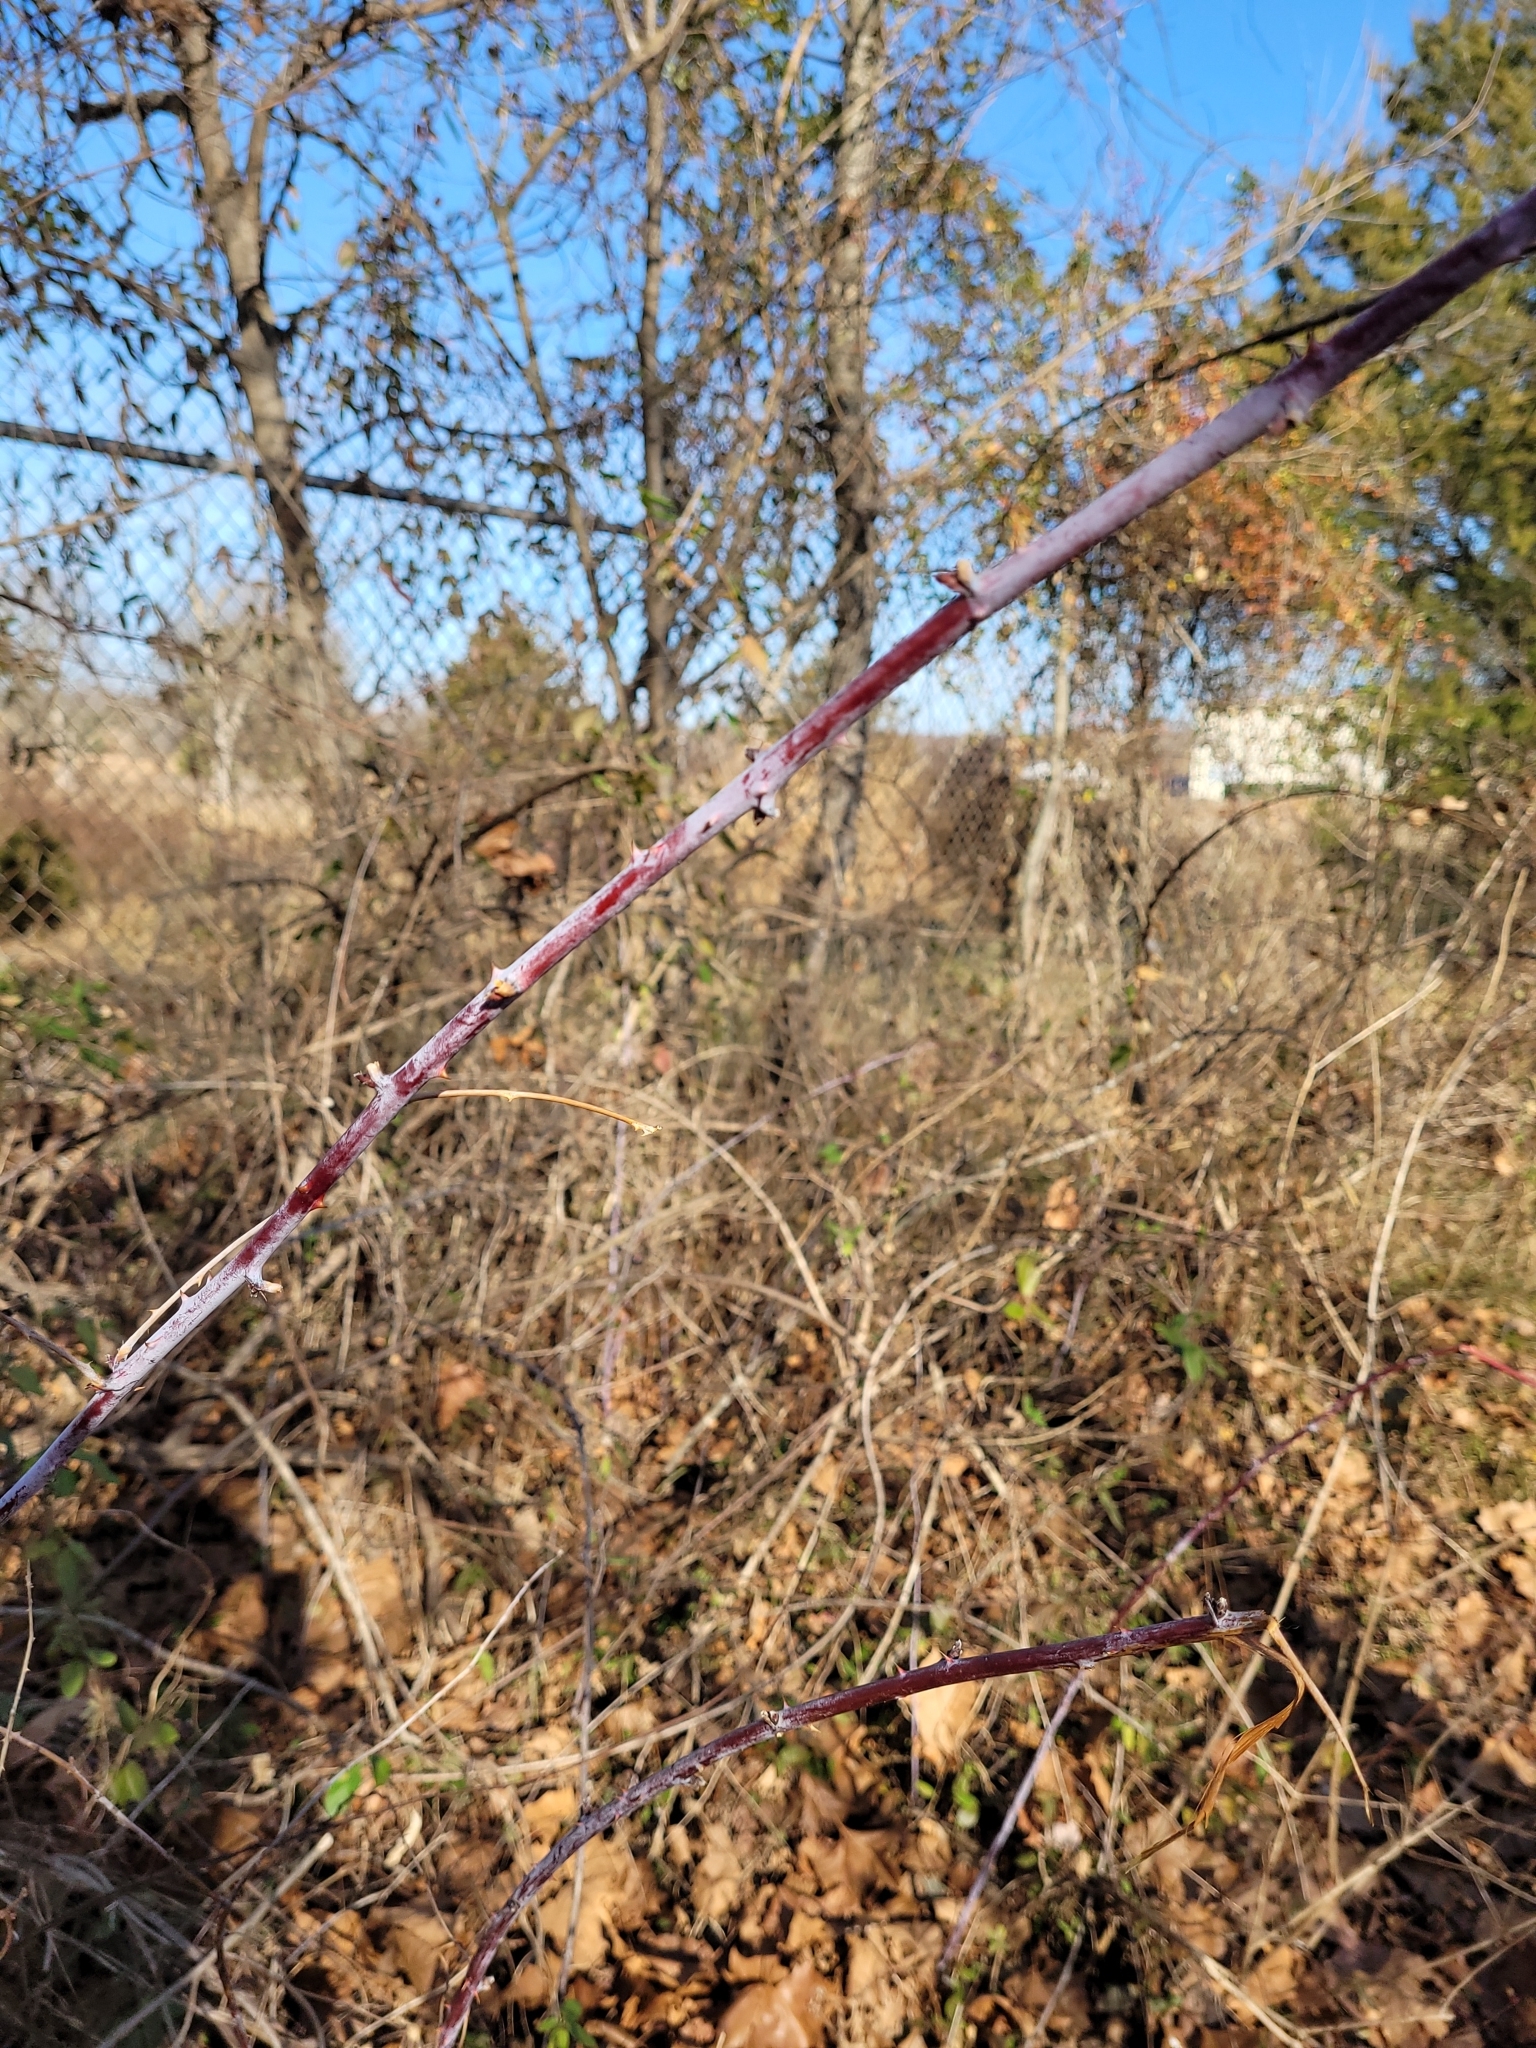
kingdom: Plantae
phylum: Tracheophyta
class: Magnoliopsida
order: Rosales
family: Rosaceae
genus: Rubus
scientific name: Rubus occidentalis
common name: Black raspberry
